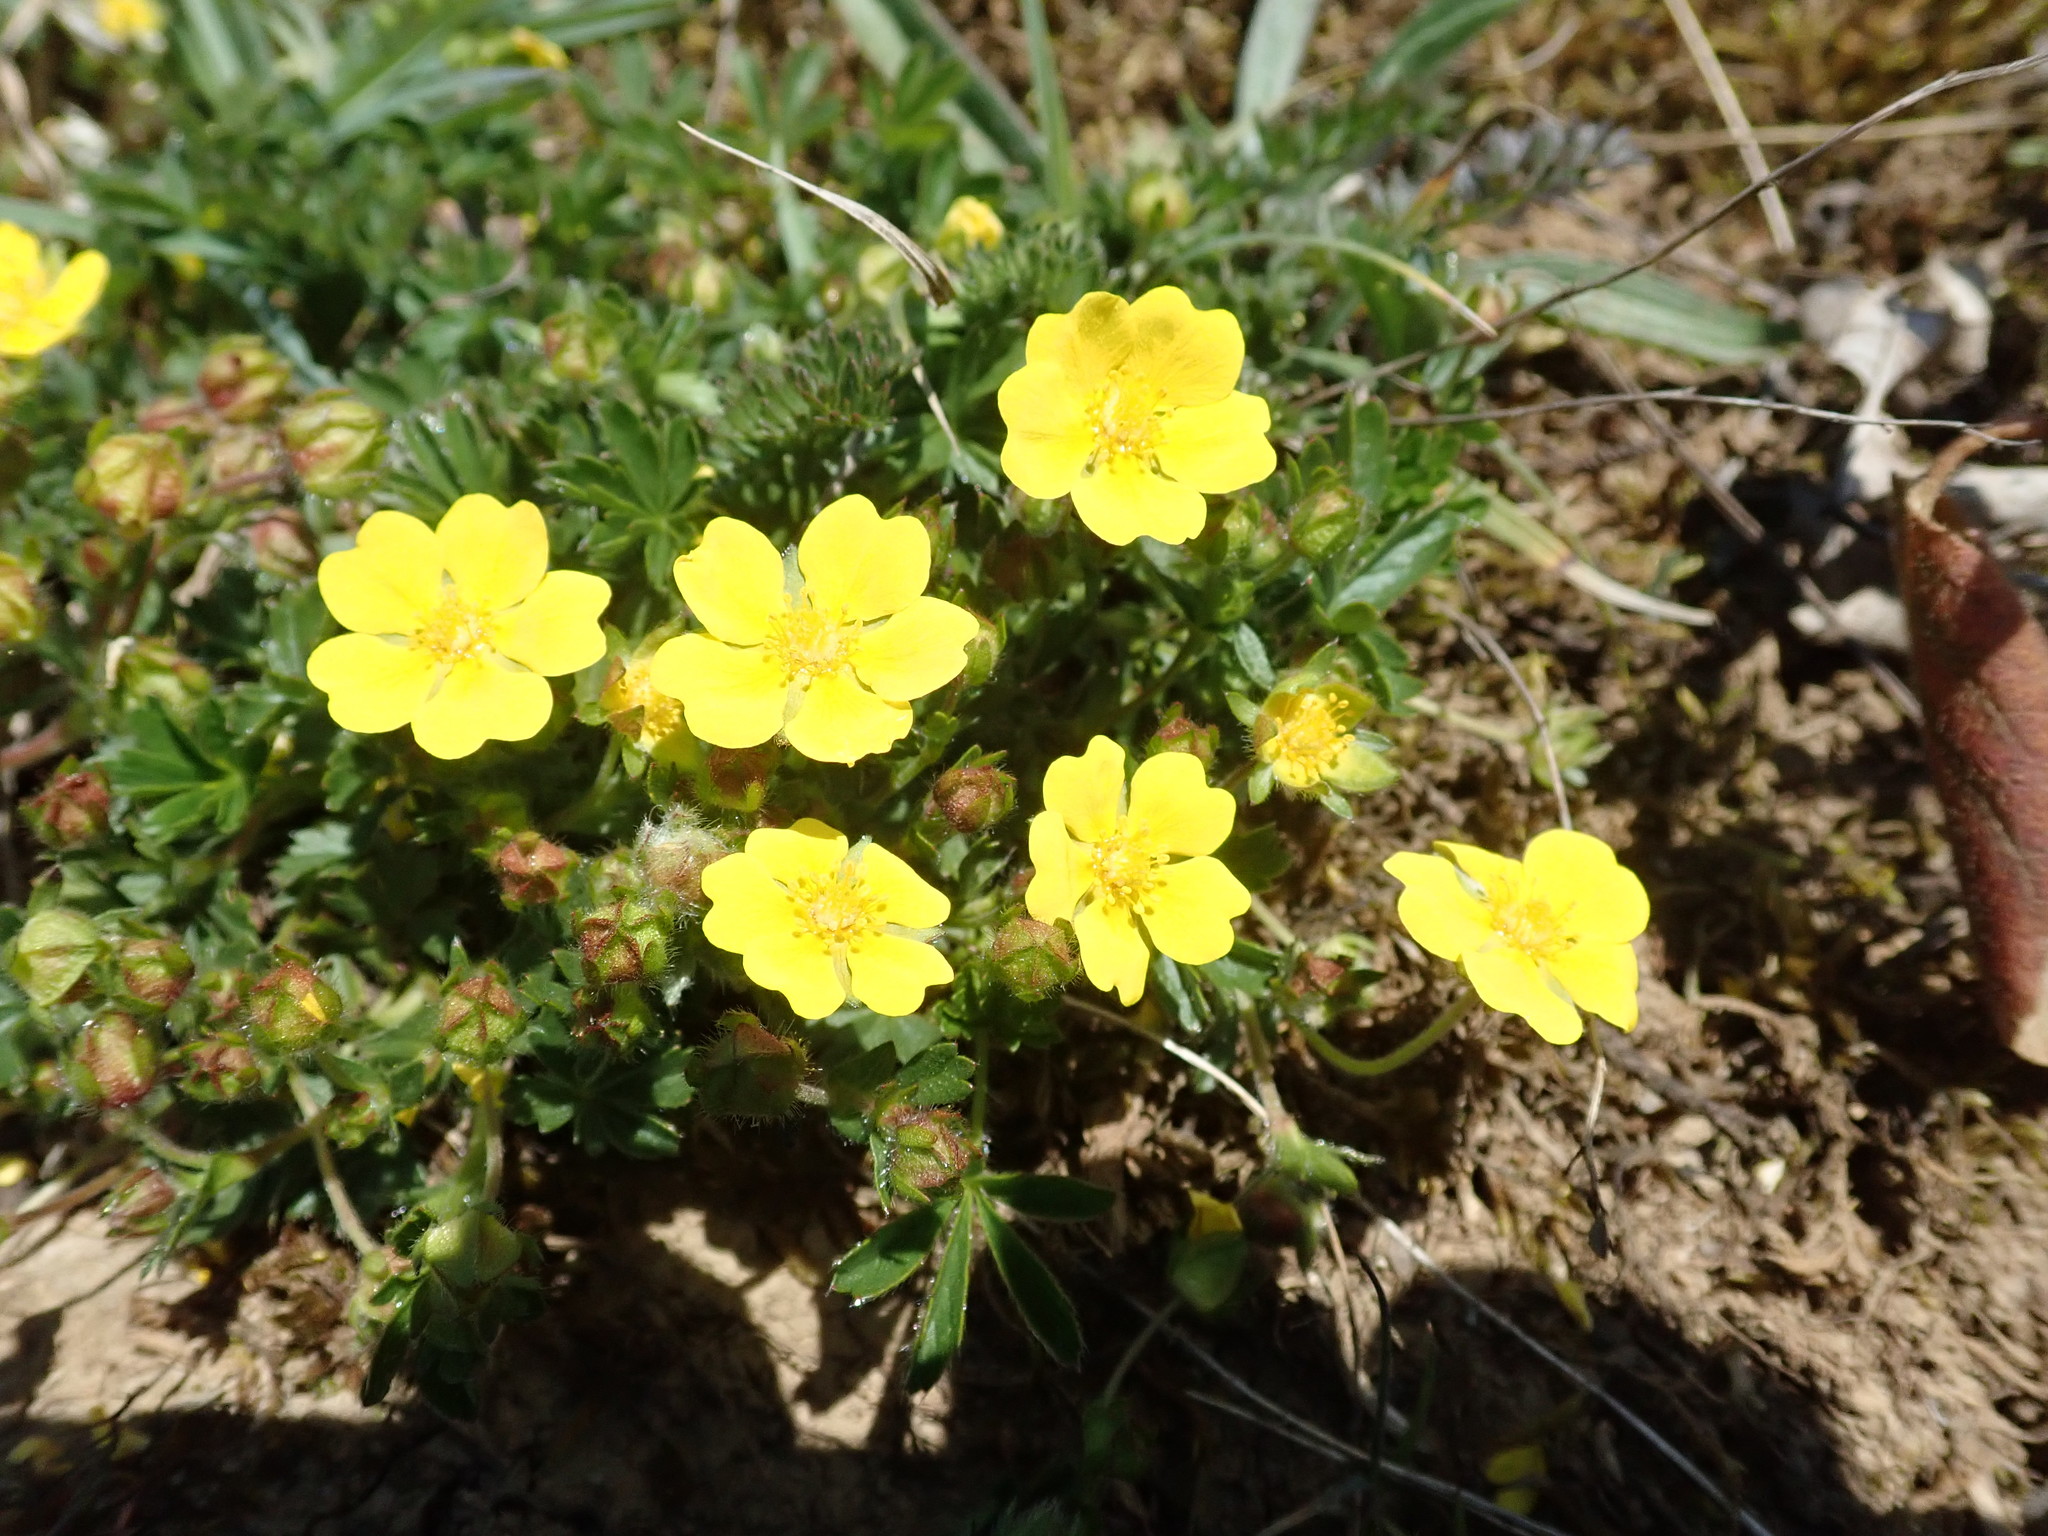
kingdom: Plantae
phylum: Tracheophyta
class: Magnoliopsida
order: Rosales
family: Rosaceae
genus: Potentilla
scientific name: Potentilla verna
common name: Spring cinquefoil
